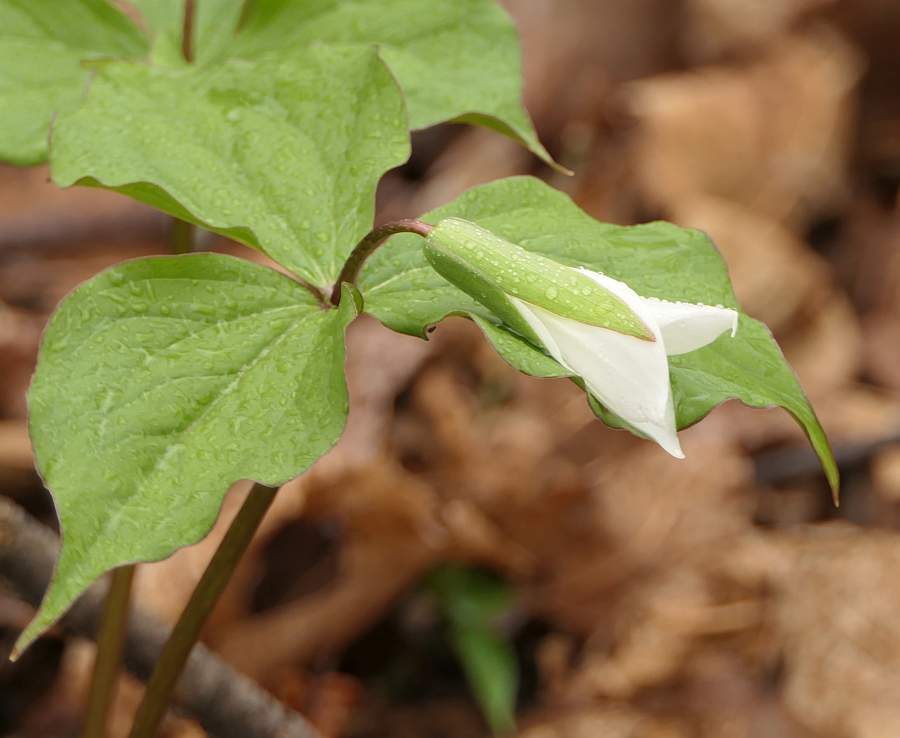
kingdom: Plantae
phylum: Tracheophyta
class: Liliopsida
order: Liliales
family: Melanthiaceae
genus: Trillium
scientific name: Trillium grandiflorum
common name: Great white trillium
